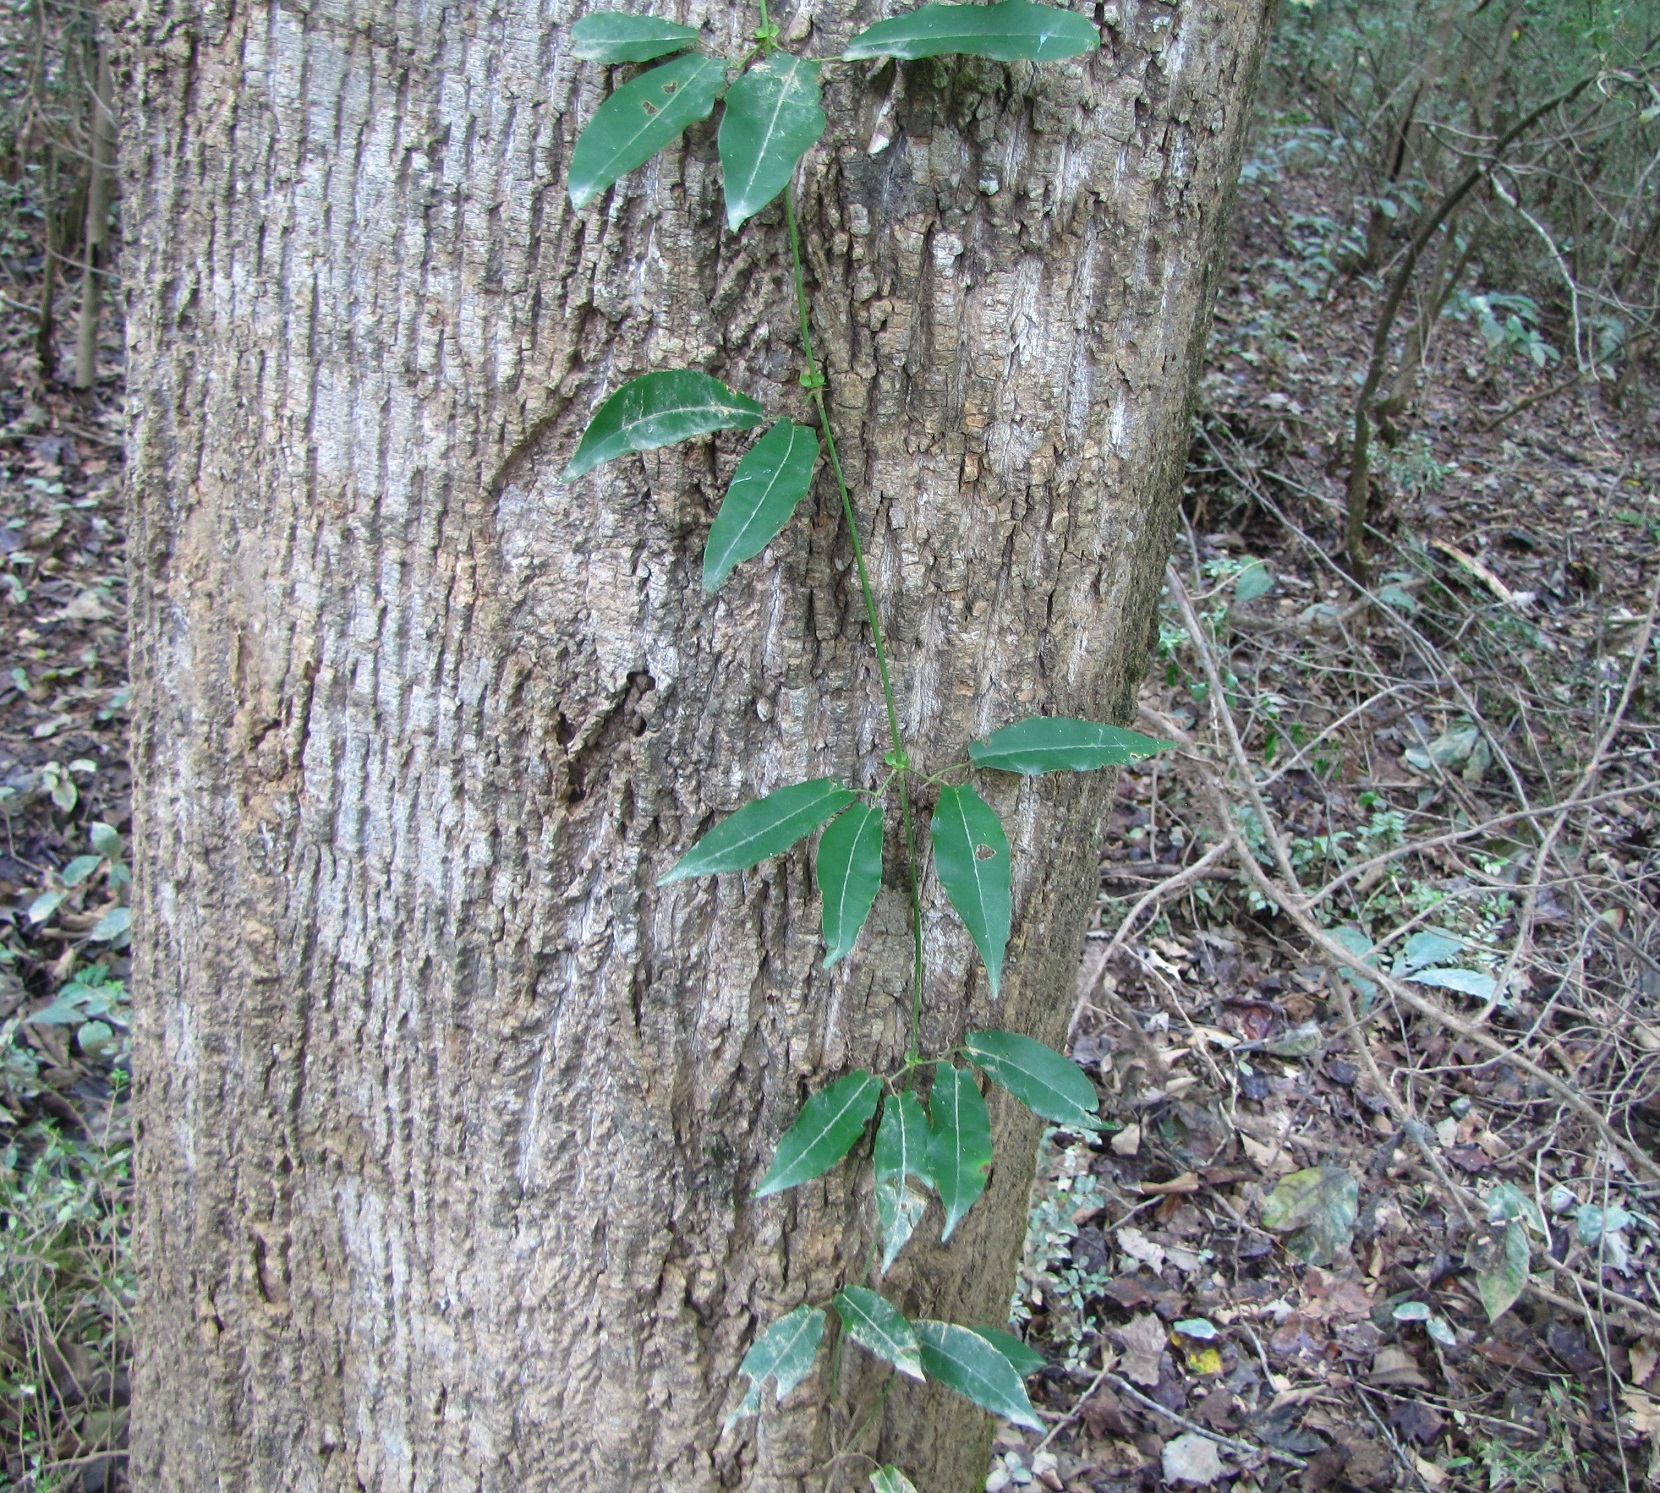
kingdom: Plantae
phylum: Tracheophyta
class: Magnoliopsida
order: Lamiales
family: Bignoniaceae
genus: Bignonia
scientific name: Bignonia capreolata
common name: Crossvine
